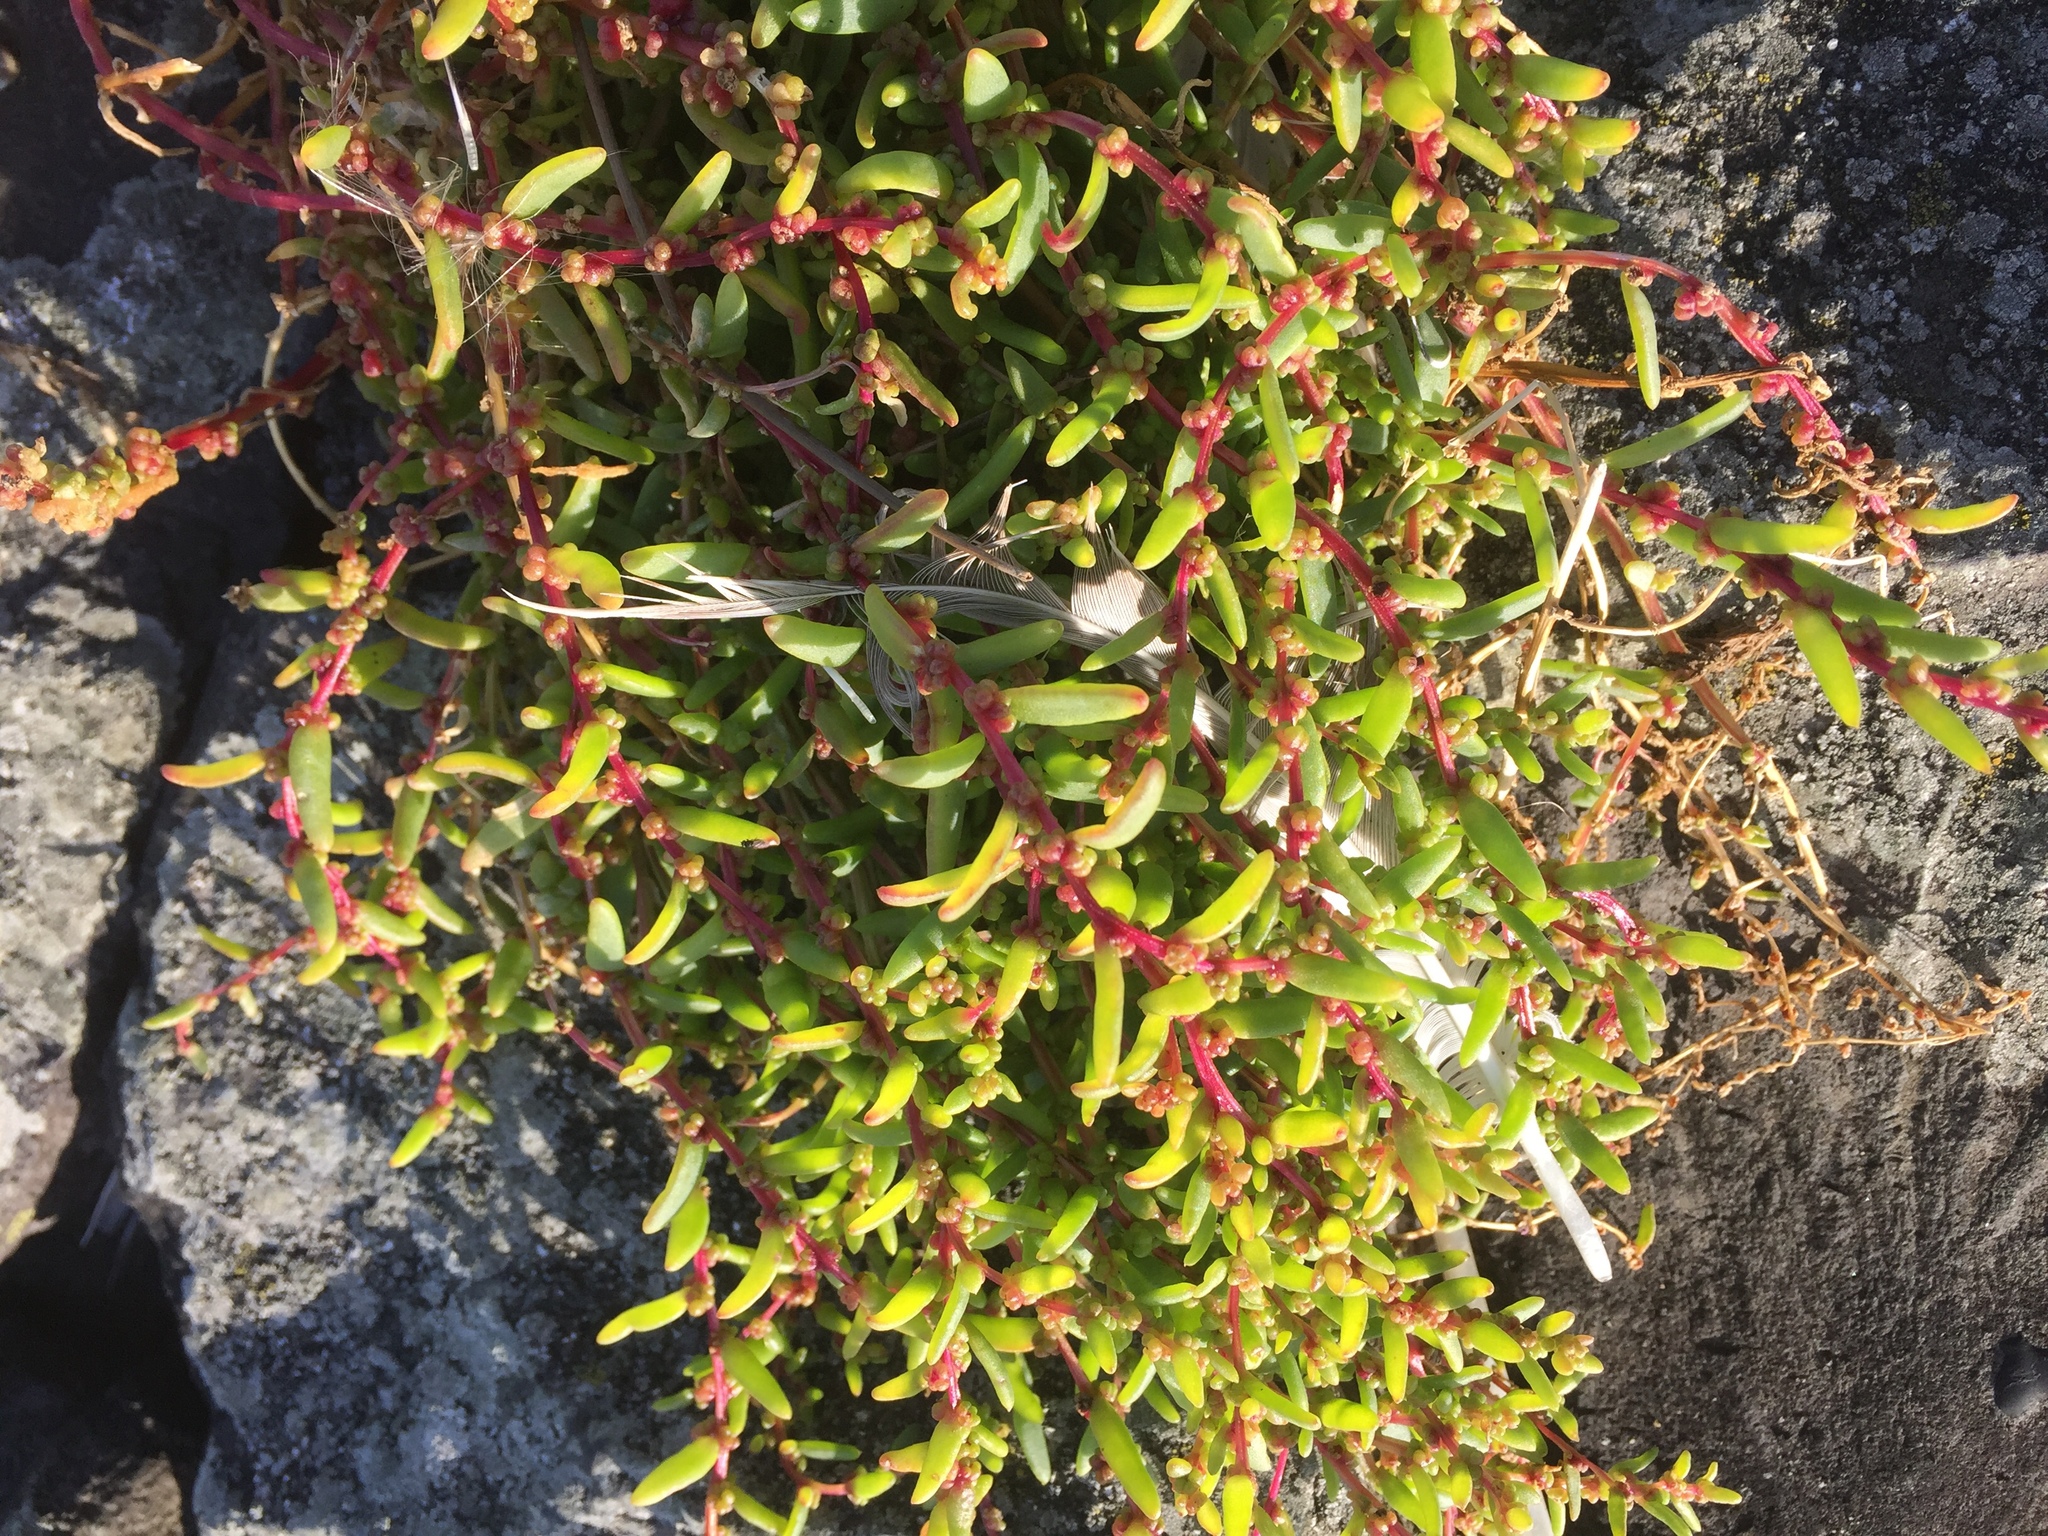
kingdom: Plantae
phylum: Tracheophyta
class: Magnoliopsida
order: Caryophyllales
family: Amaranthaceae
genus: Suaeda
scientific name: Suaeda maritima
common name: Annual sea-blite
